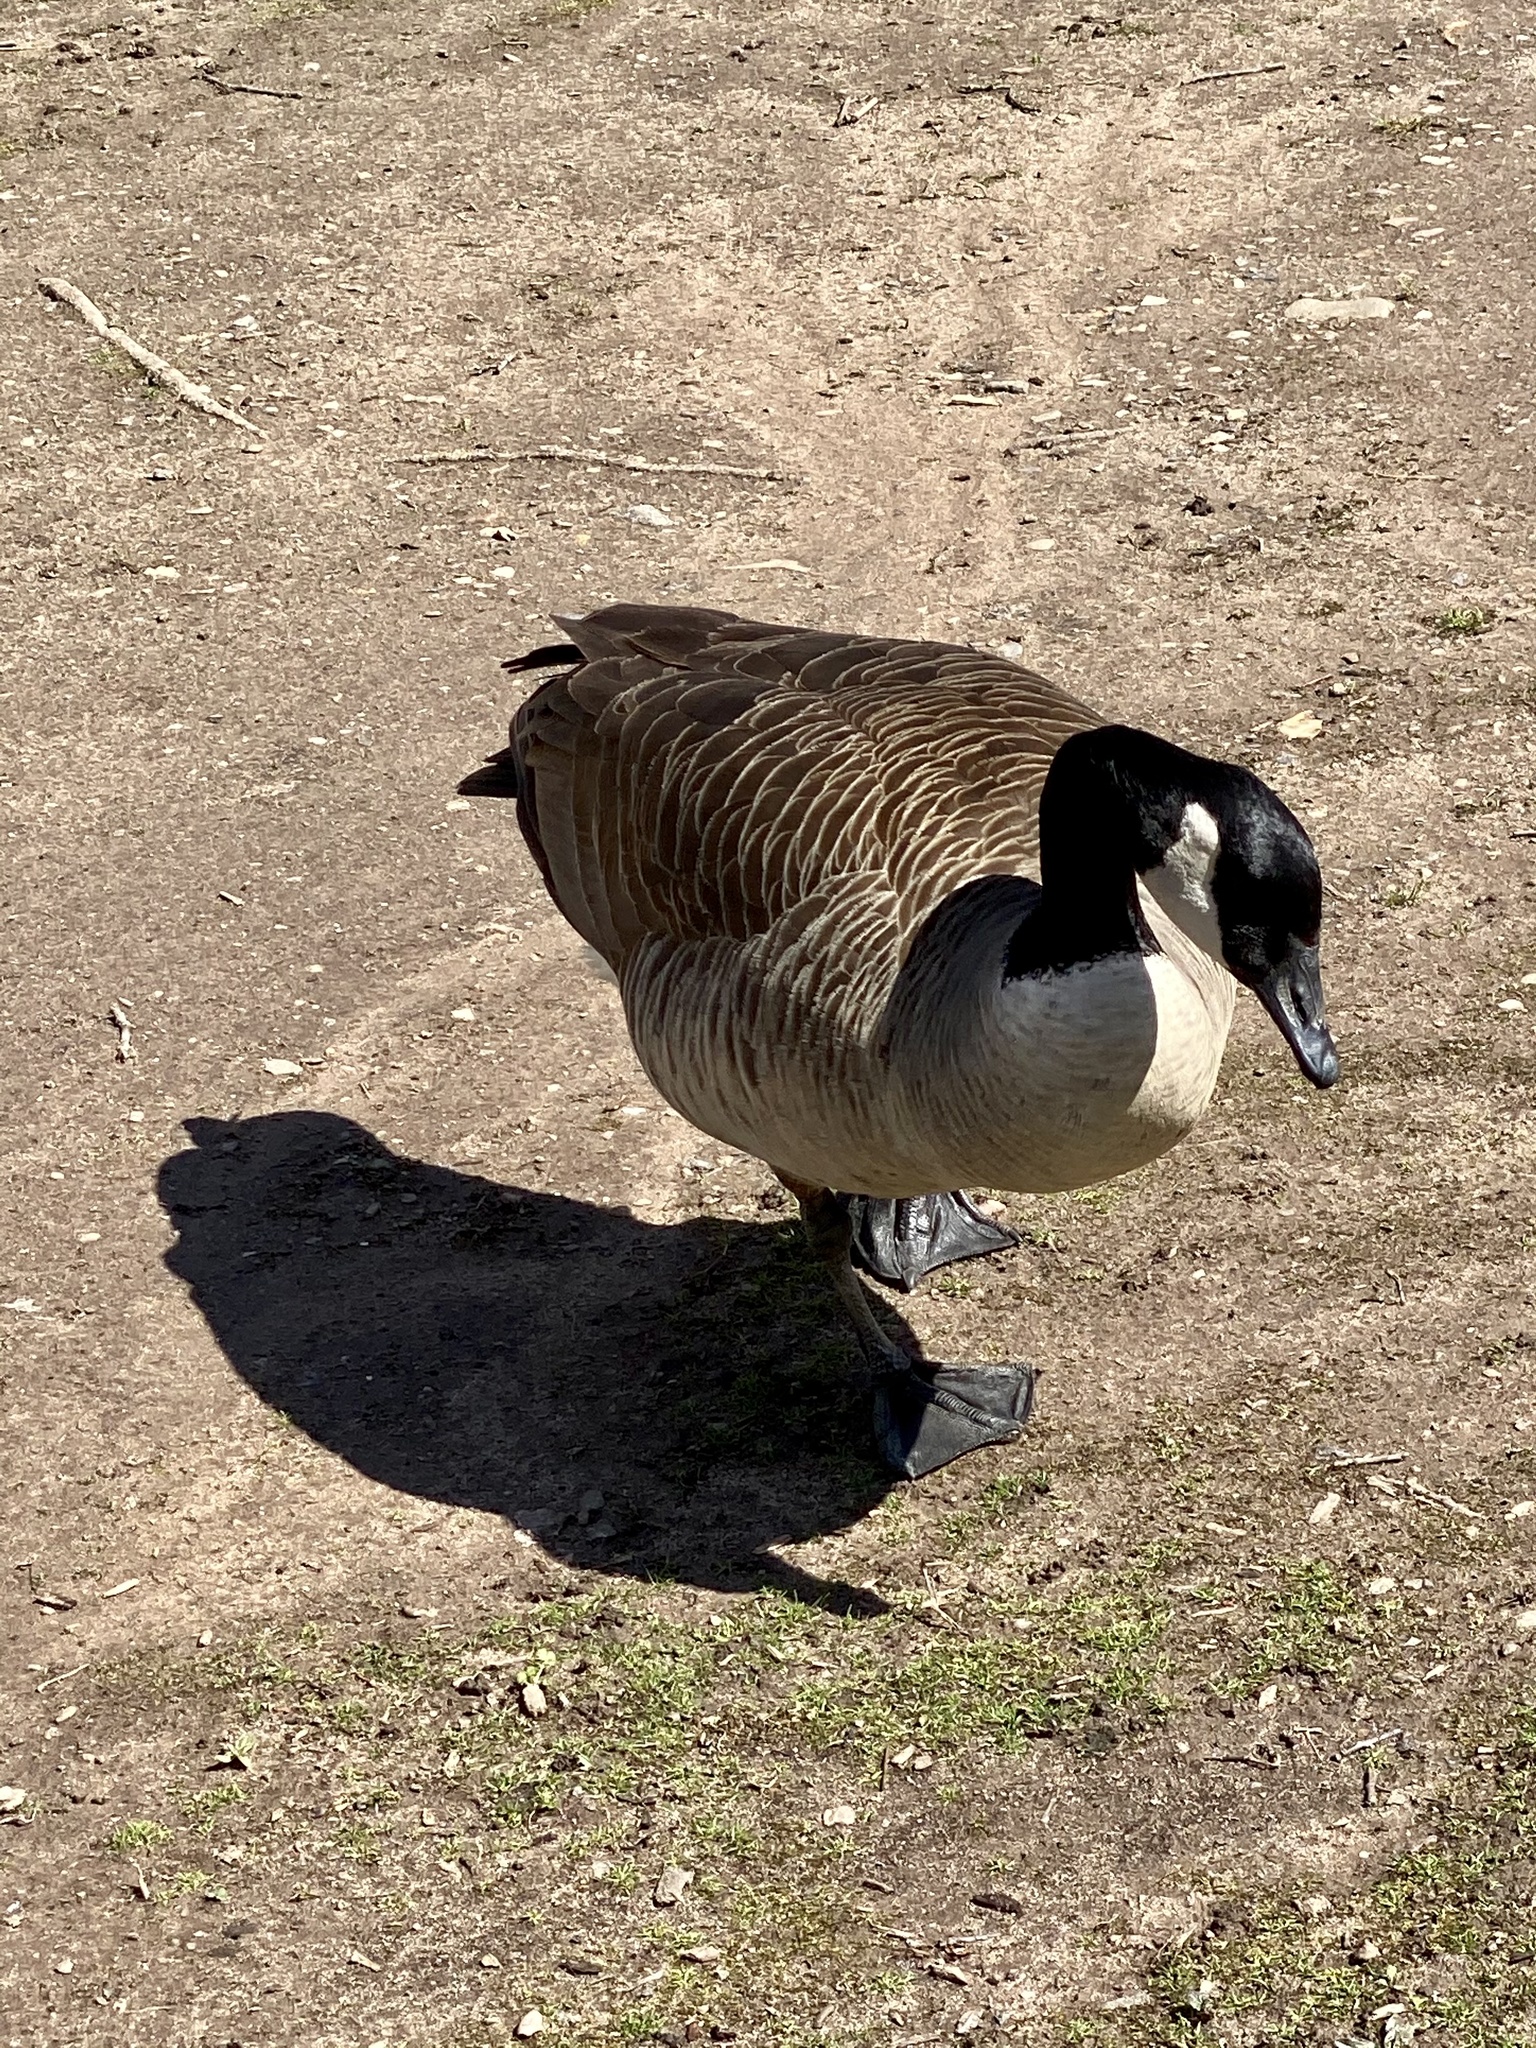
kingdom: Animalia
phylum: Chordata
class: Aves
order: Anseriformes
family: Anatidae
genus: Branta
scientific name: Branta canadensis
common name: Canada goose
